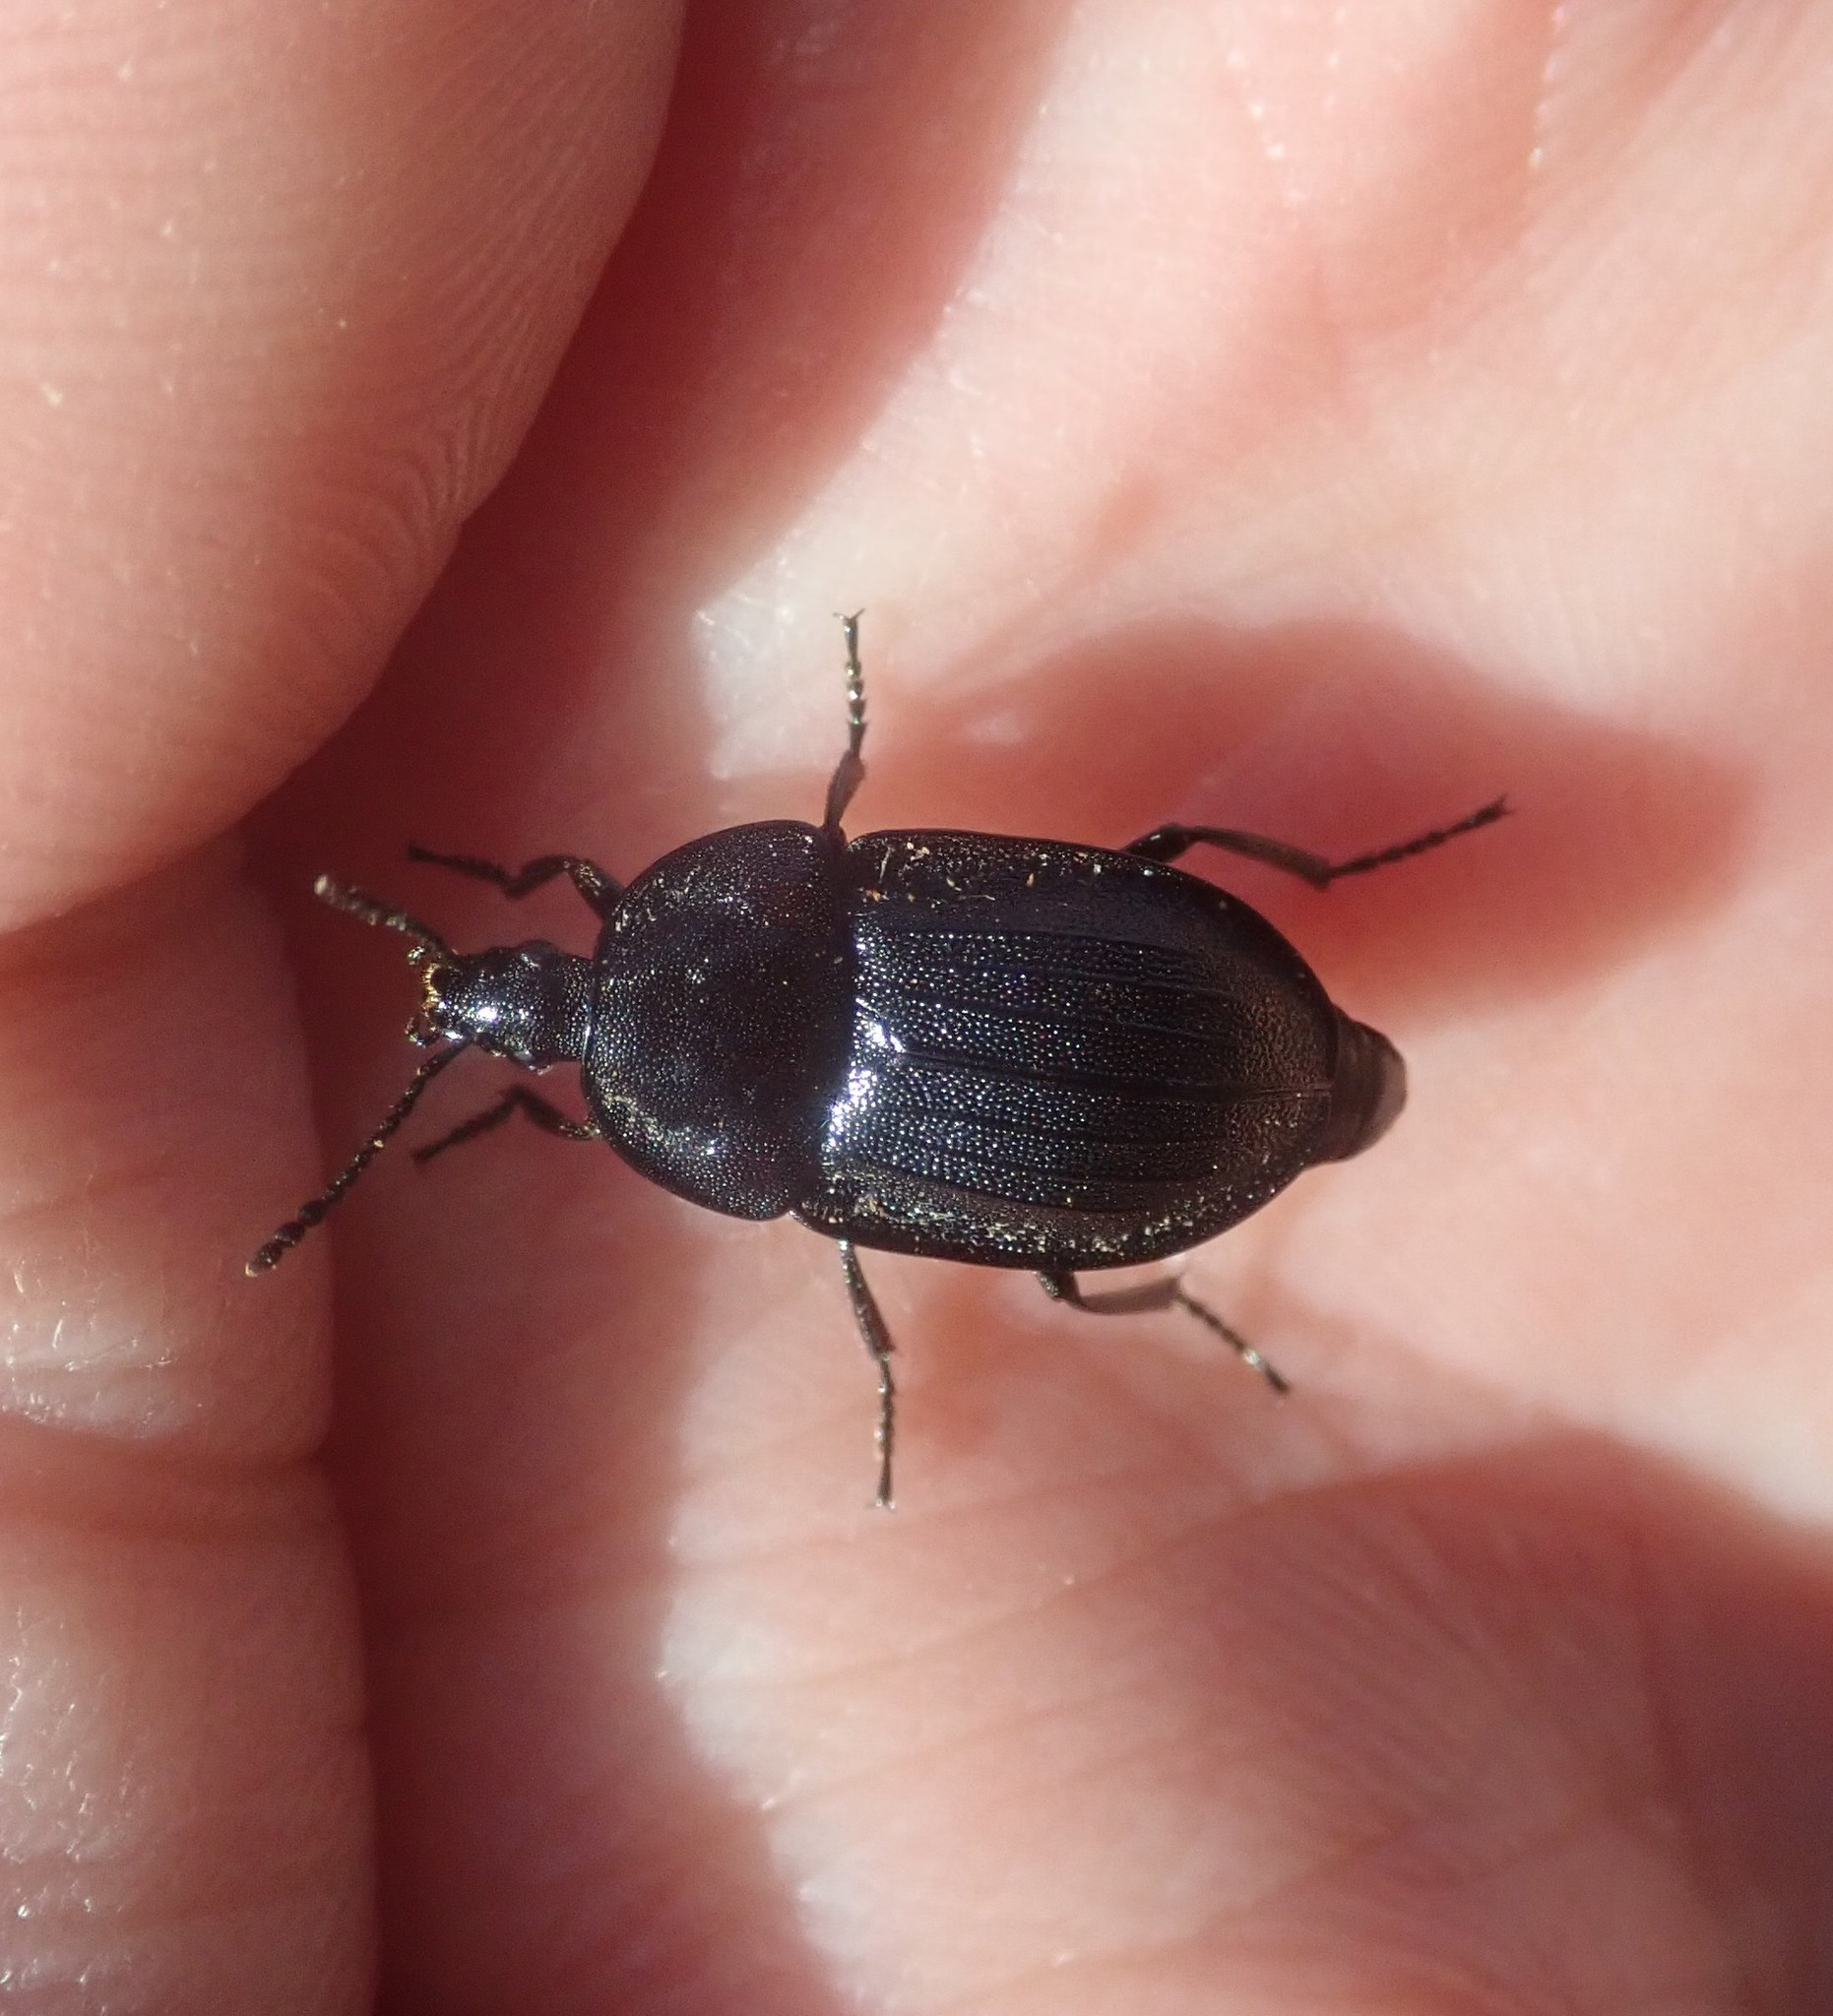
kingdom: Animalia
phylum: Arthropoda
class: Insecta
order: Coleoptera
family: Staphylinidae
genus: Silpha
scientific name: Silpha atrata
